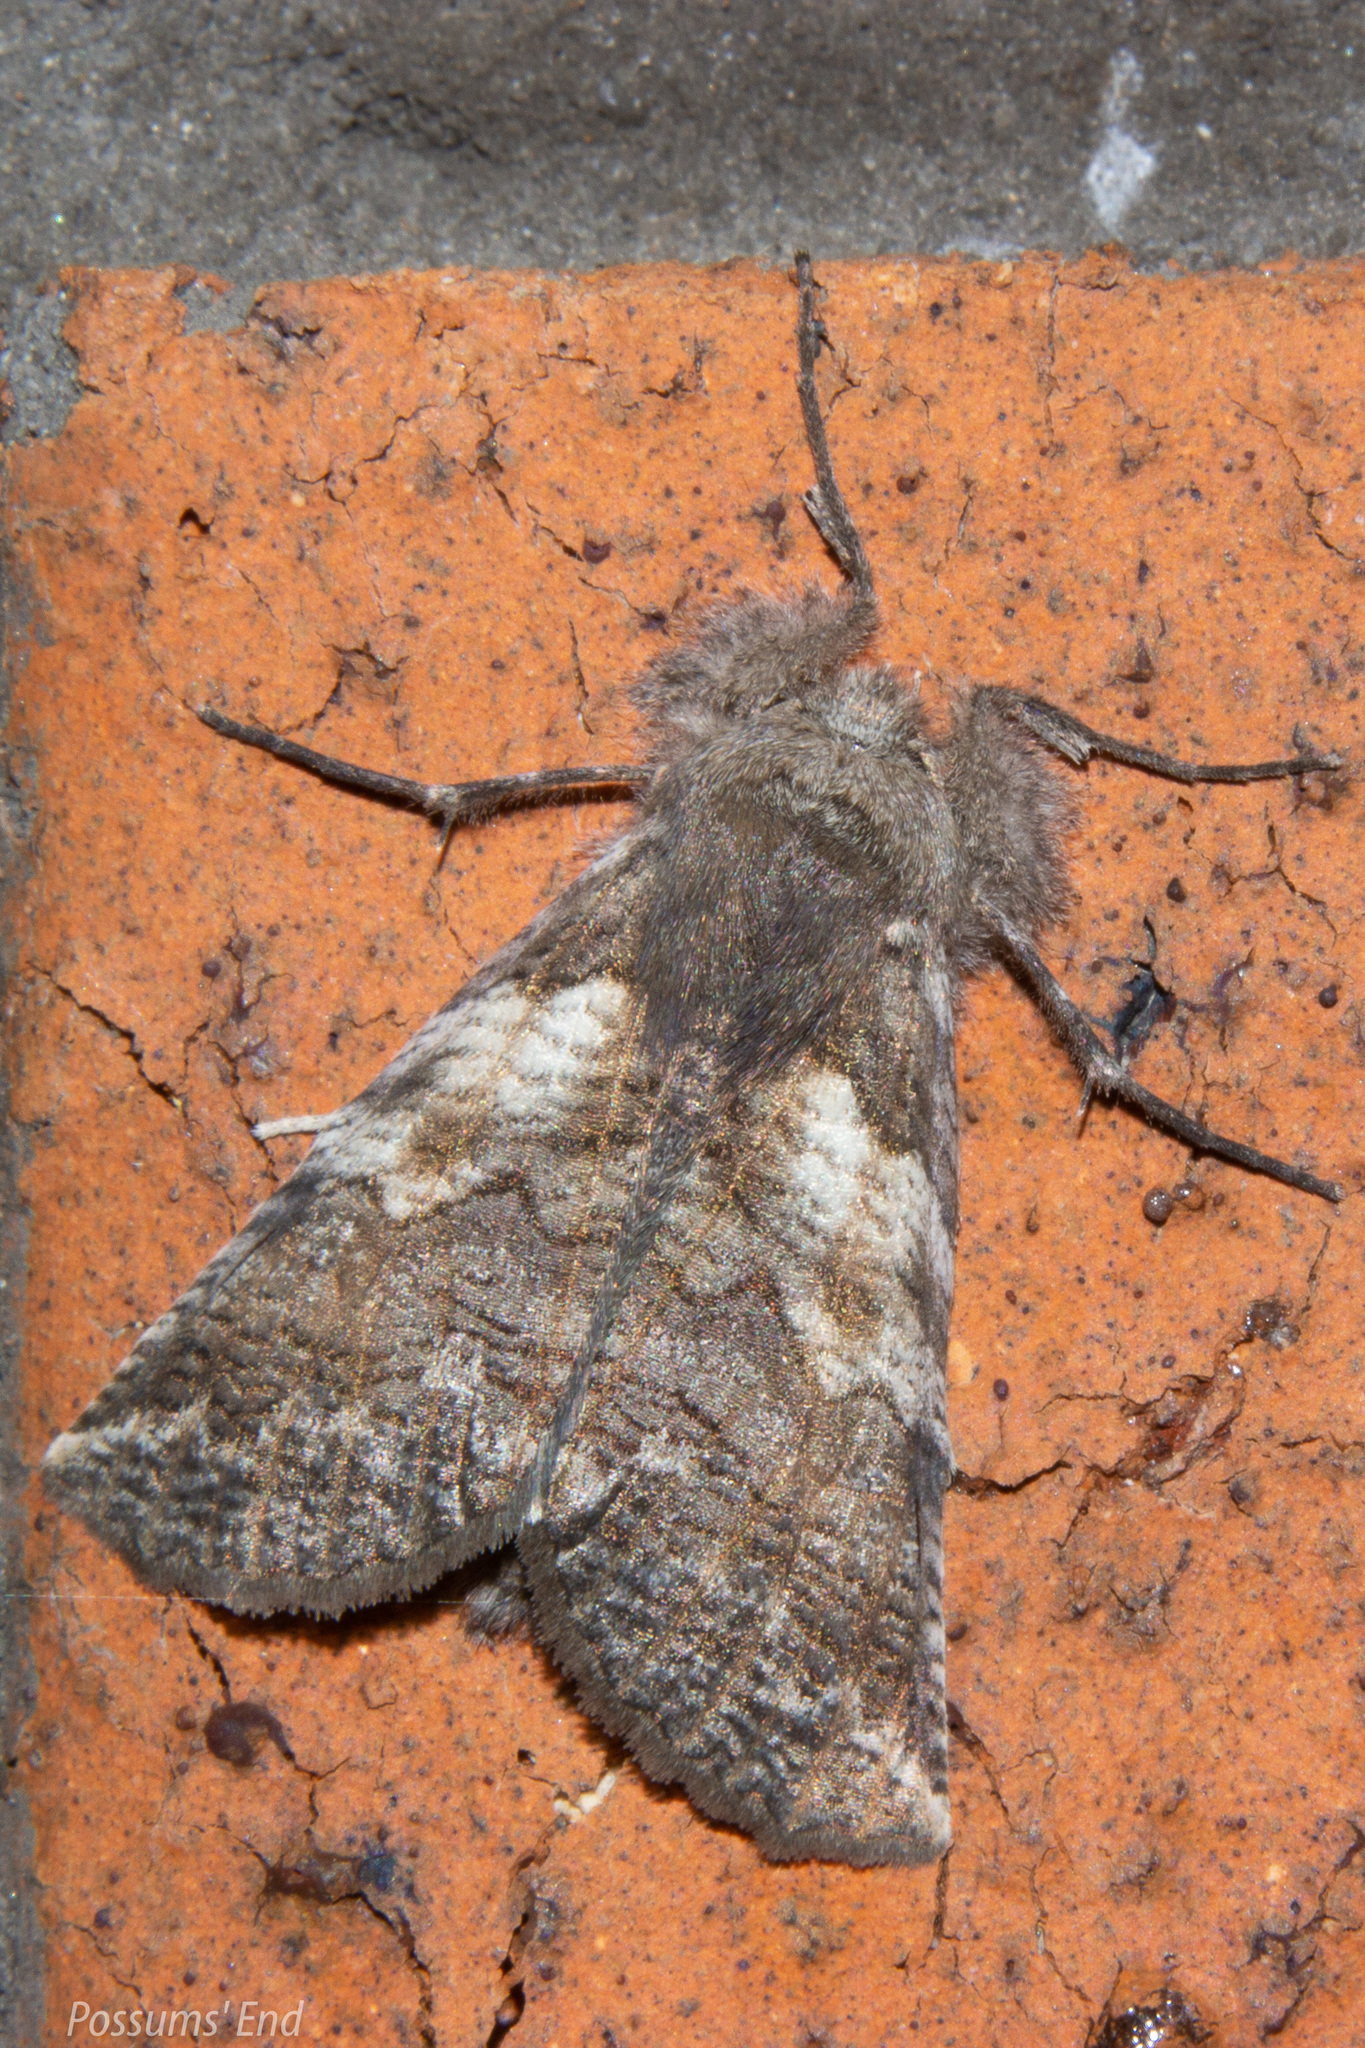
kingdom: Animalia
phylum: Arthropoda
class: Insecta
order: Lepidoptera
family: Geometridae
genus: Declana
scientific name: Declana
